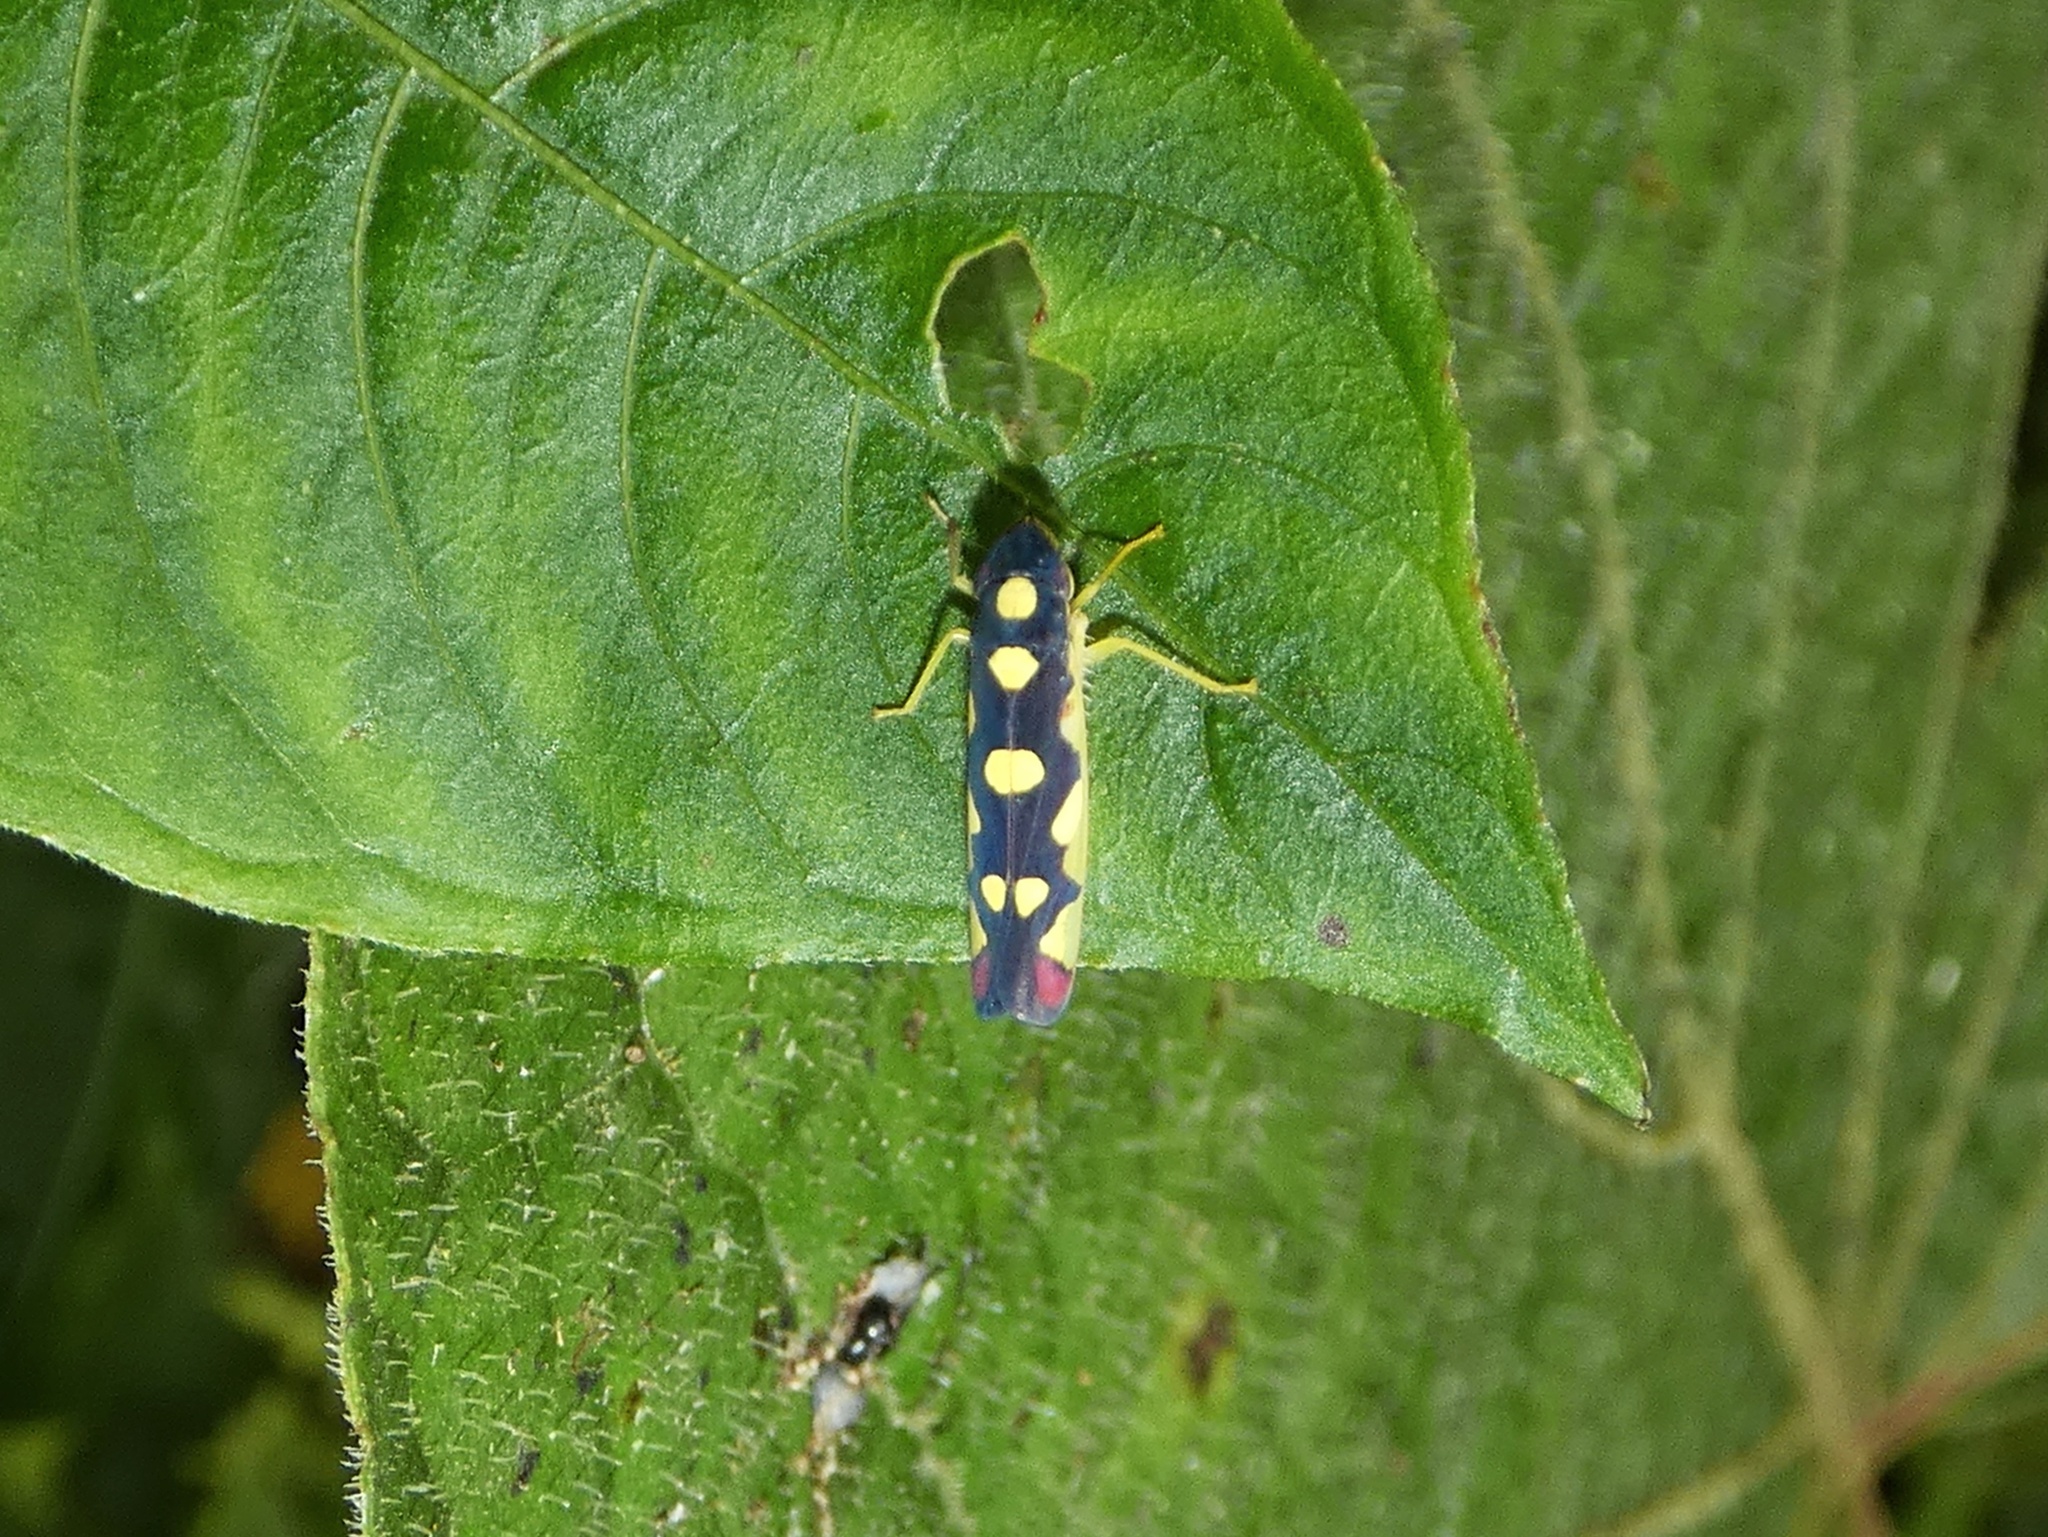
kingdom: Animalia
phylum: Arthropoda
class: Insecta
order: Hemiptera
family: Cicadellidae
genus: Baleja
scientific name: Baleja flavoguttata
